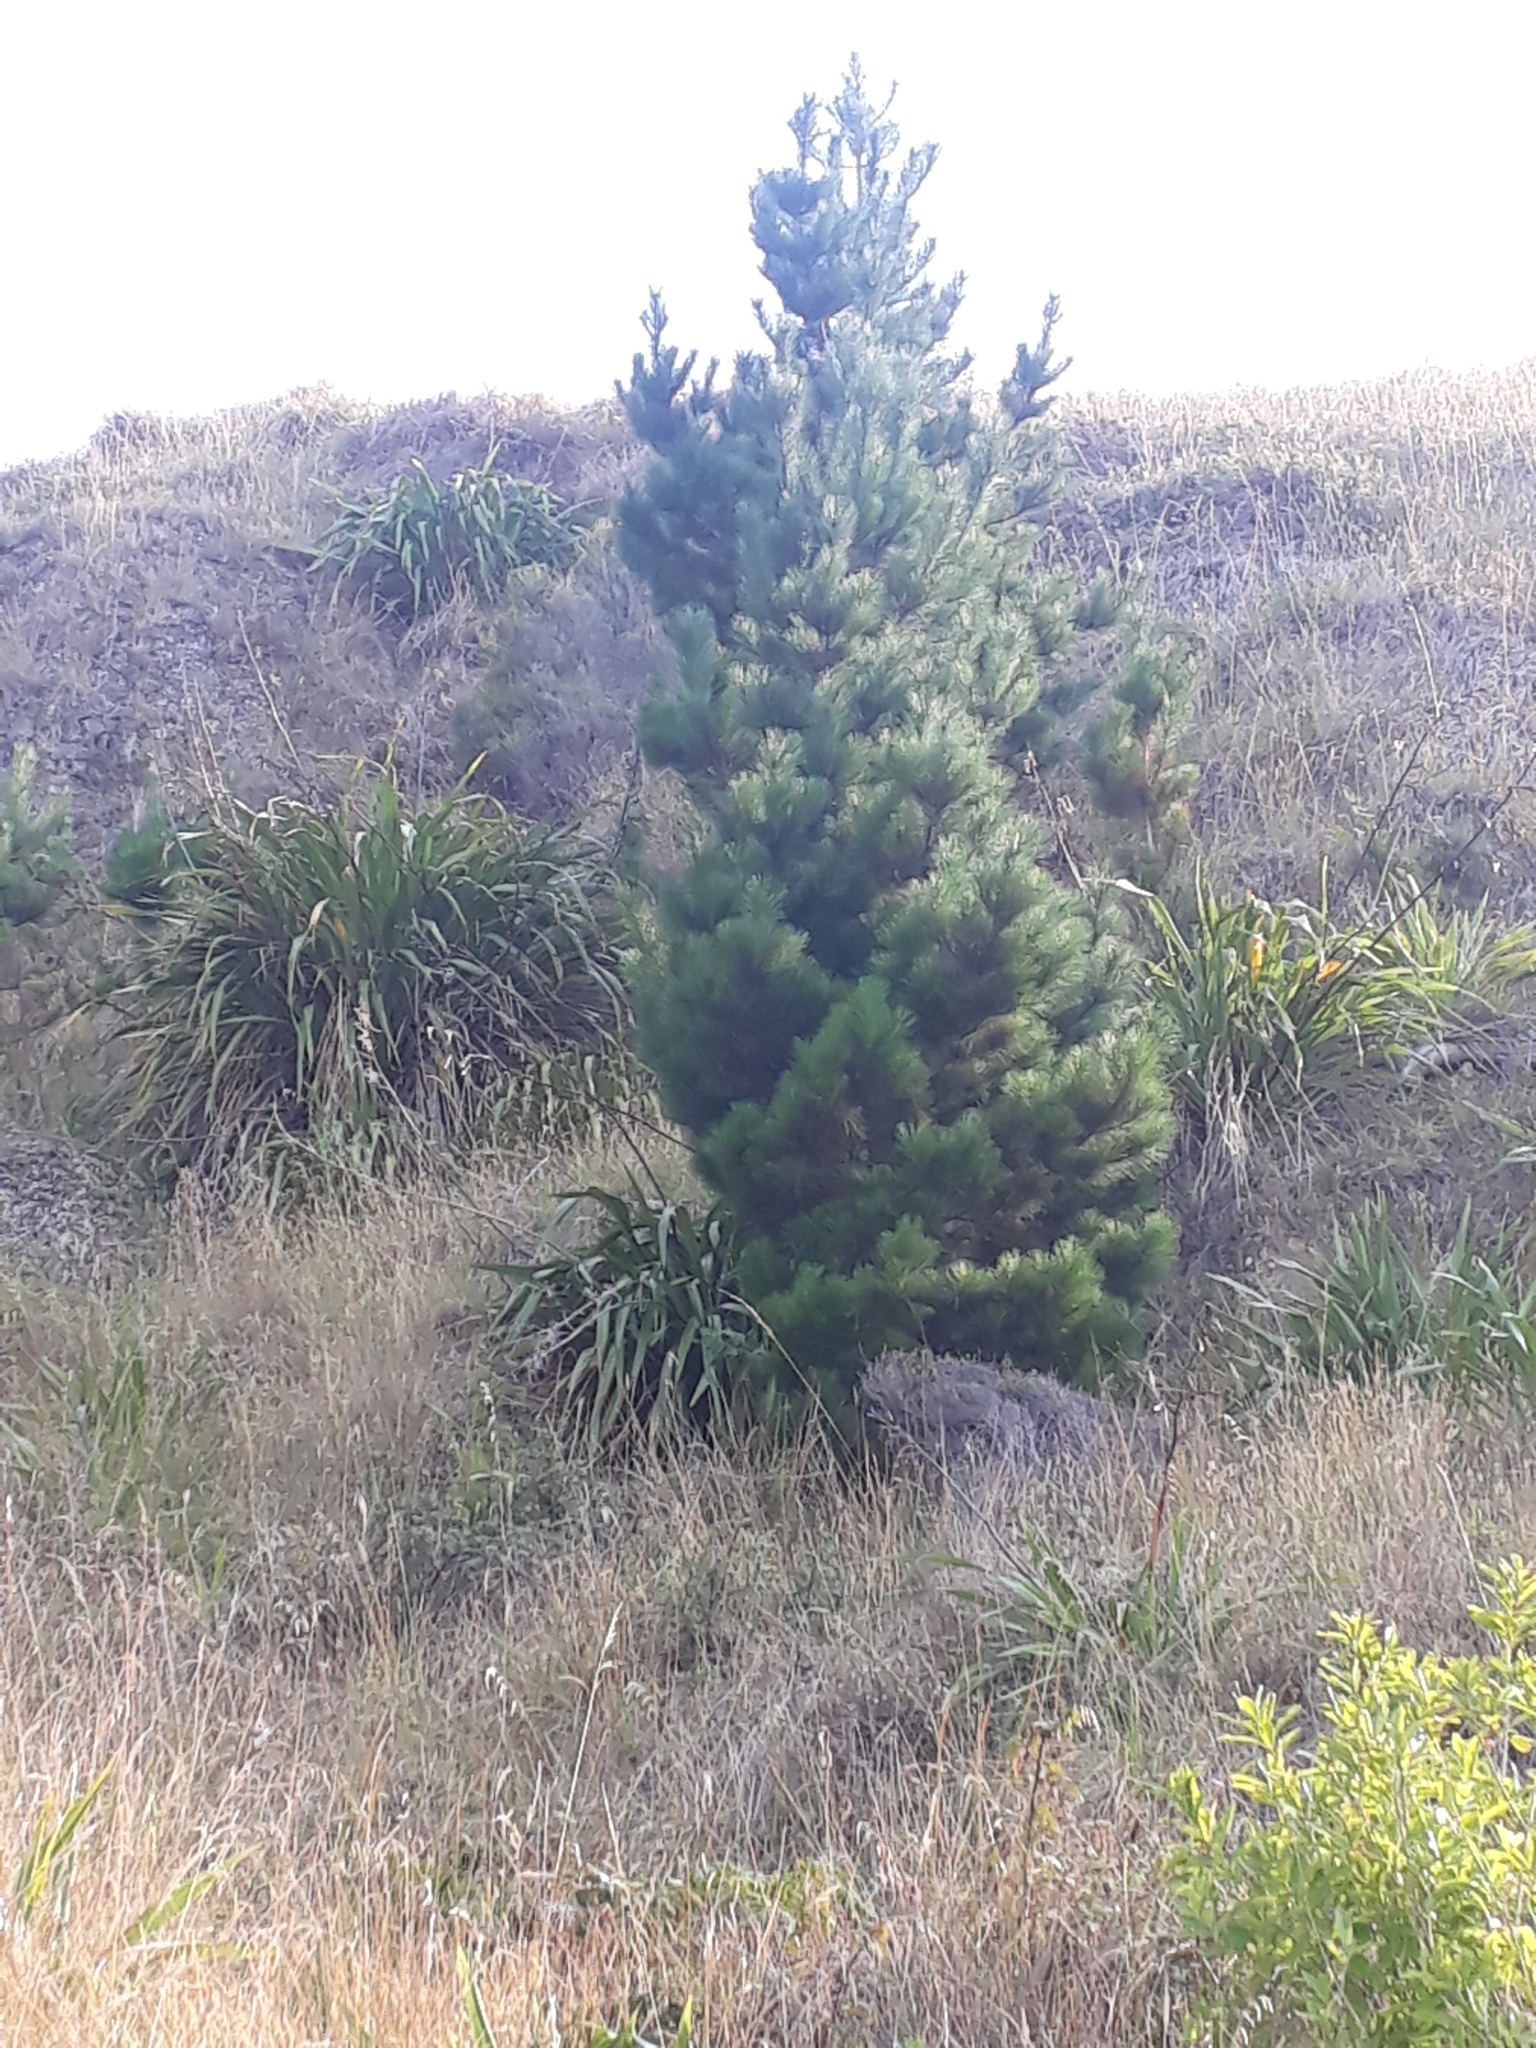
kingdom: Plantae
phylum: Tracheophyta
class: Pinopsida
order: Pinales
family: Pinaceae
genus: Pinus
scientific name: Pinus radiata
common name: Monterey pine
